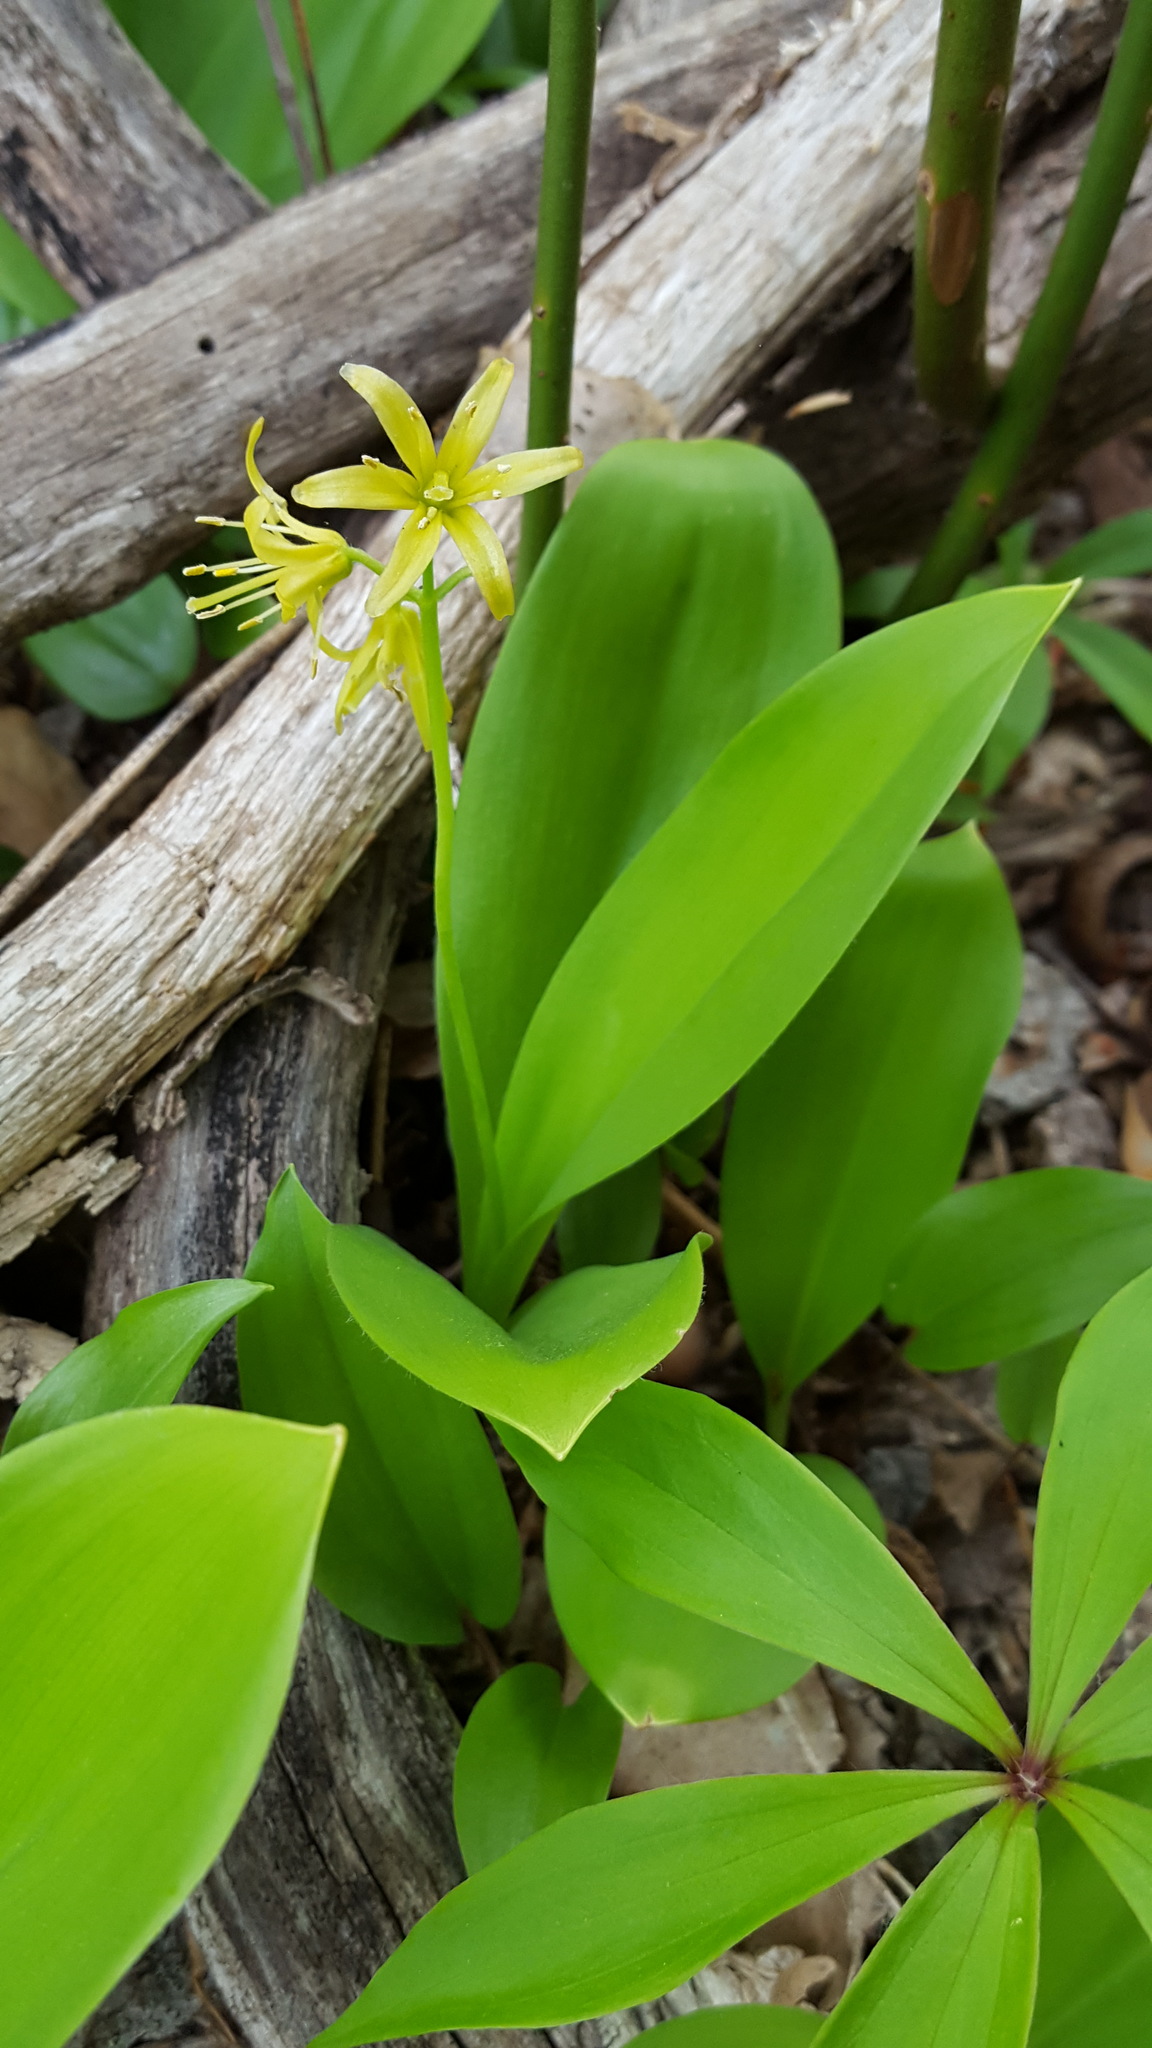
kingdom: Plantae
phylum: Tracheophyta
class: Liliopsida
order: Liliales
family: Liliaceae
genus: Clintonia
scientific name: Clintonia borealis
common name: Yellow clintonia
